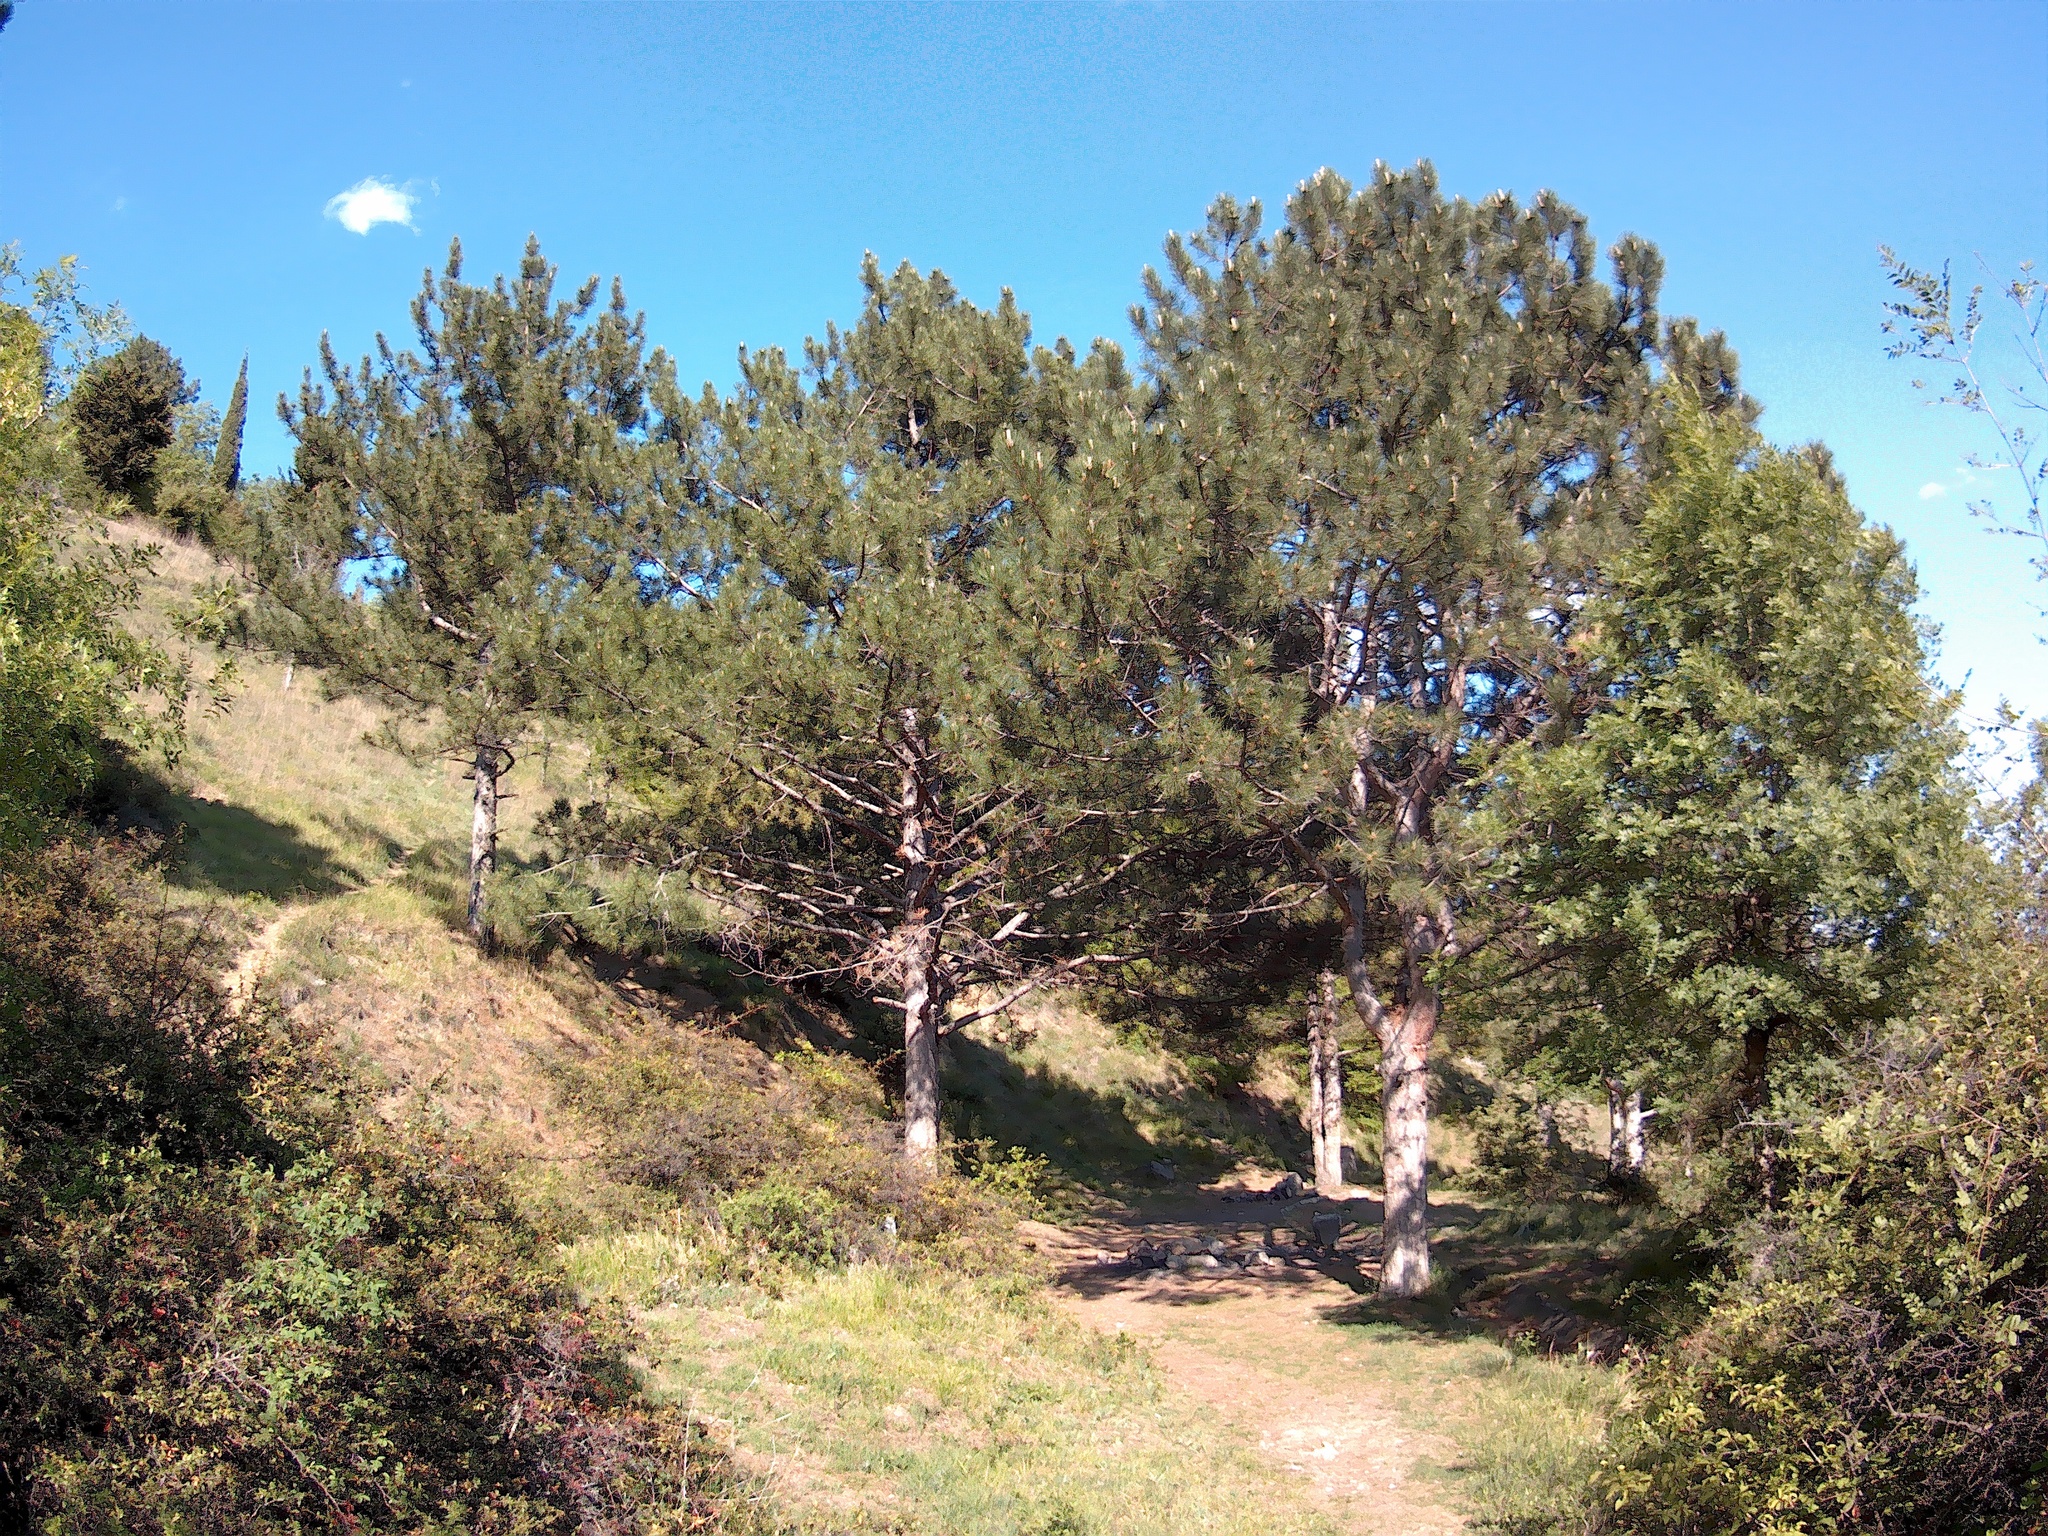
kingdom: Plantae
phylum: Tracheophyta
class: Pinopsida
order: Pinales
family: Pinaceae
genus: Pinus
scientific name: Pinus nigra
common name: Austrian pine
